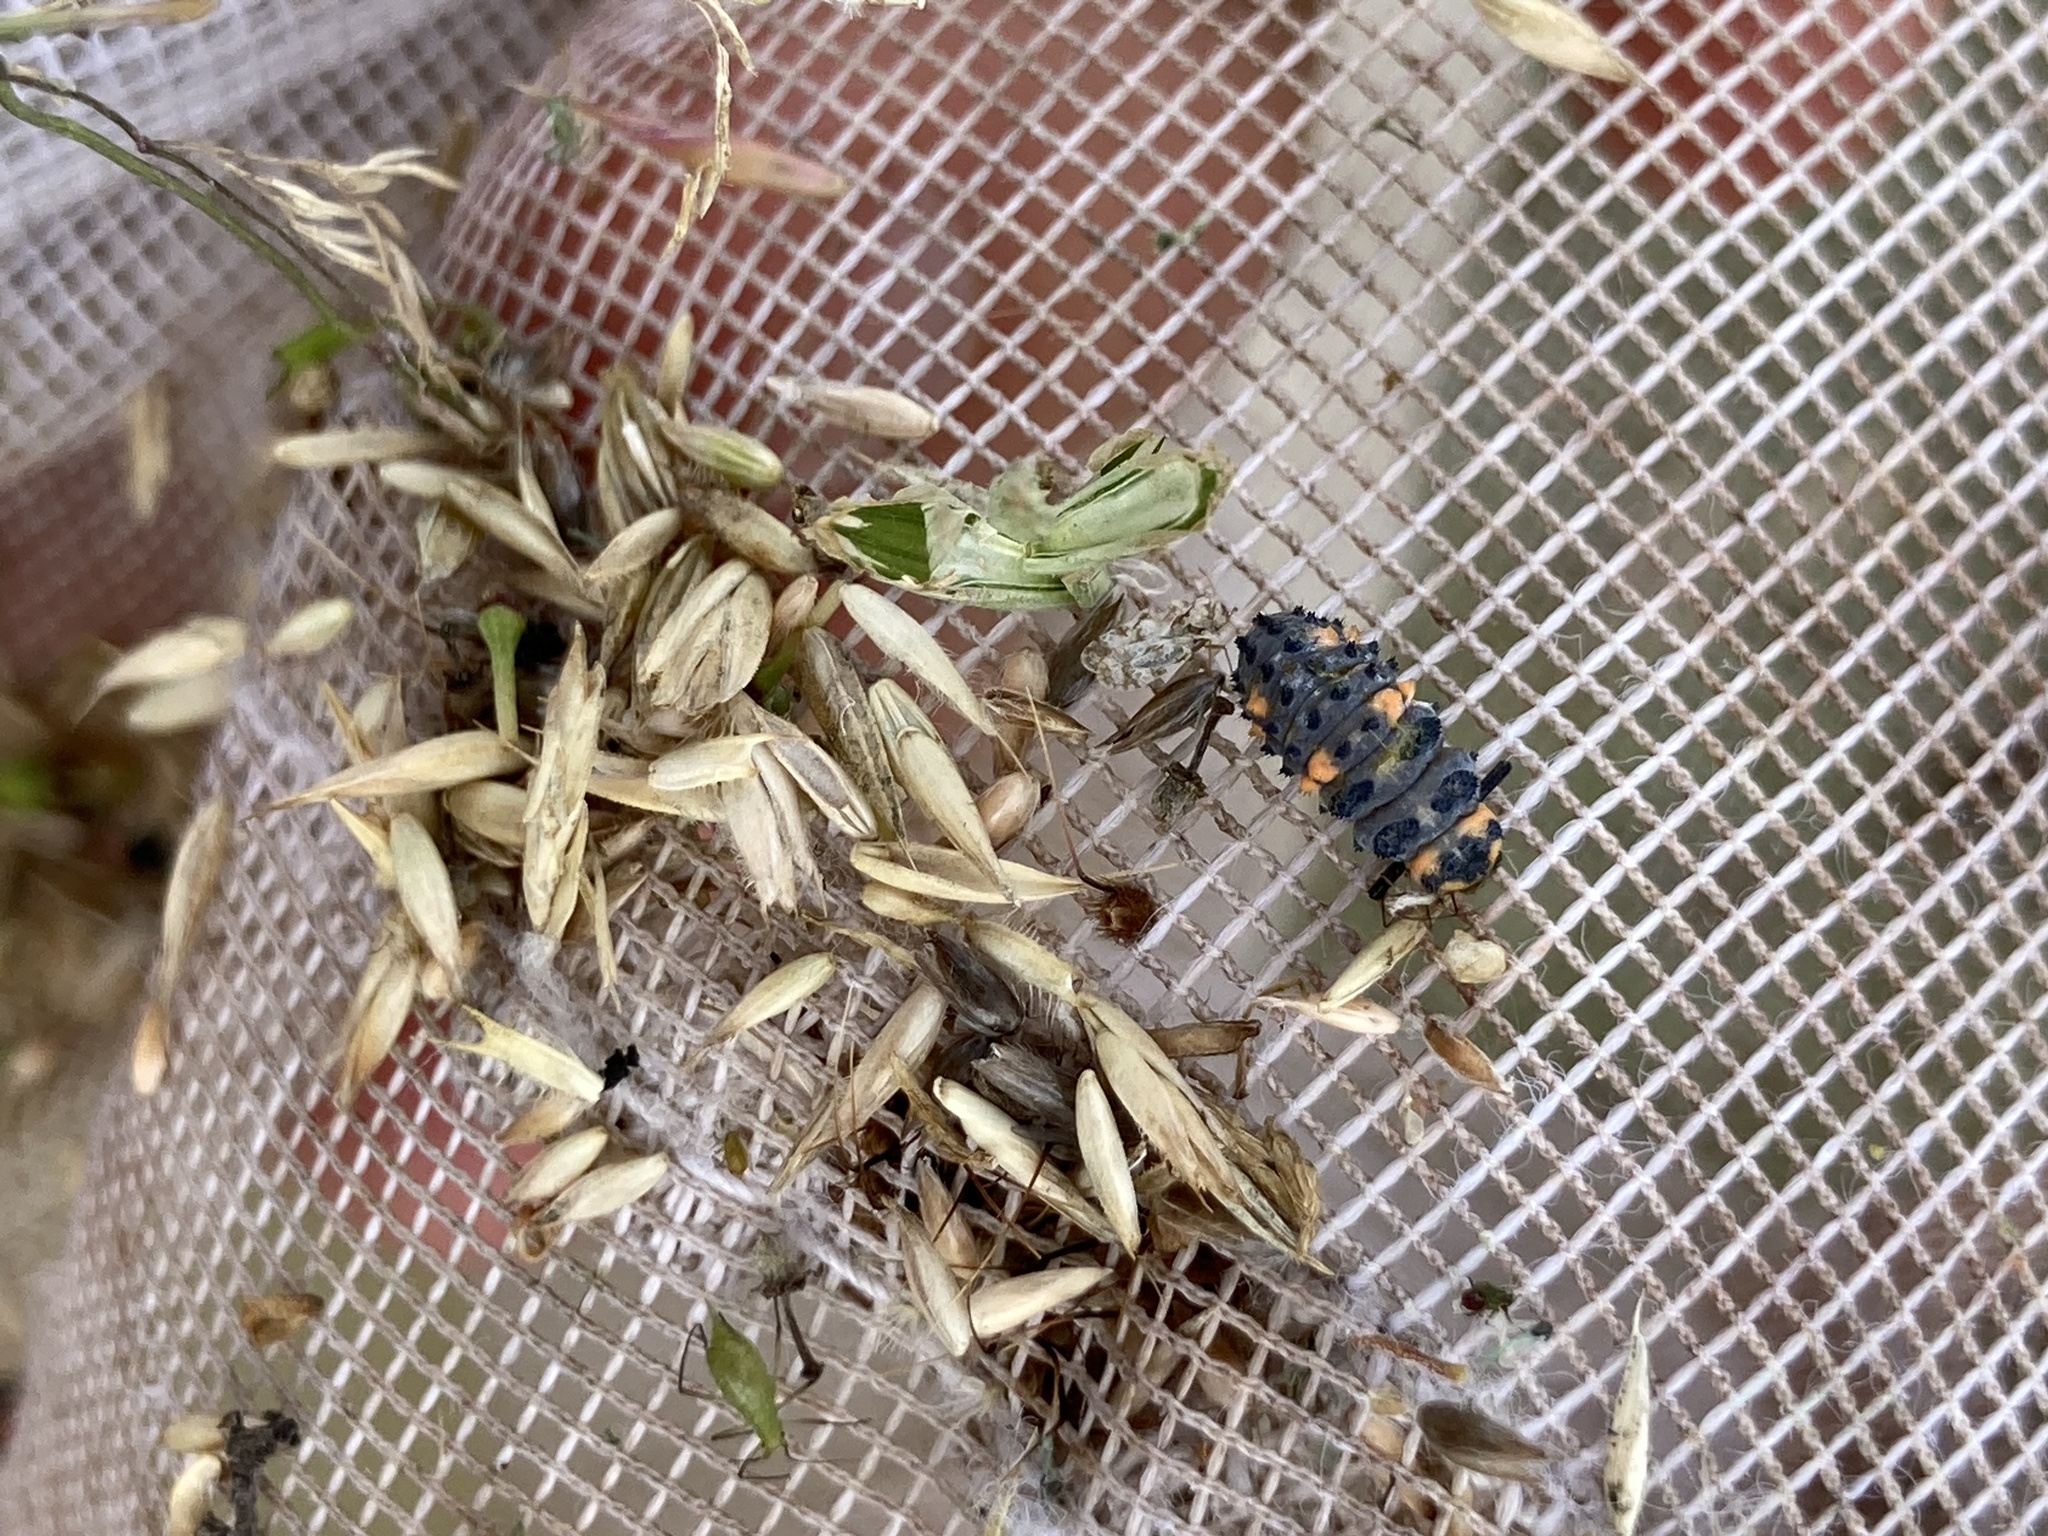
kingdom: Animalia
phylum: Arthropoda
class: Insecta
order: Coleoptera
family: Coccinellidae
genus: Coccinella
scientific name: Coccinella septempunctata
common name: Sevenspotted lady beetle
